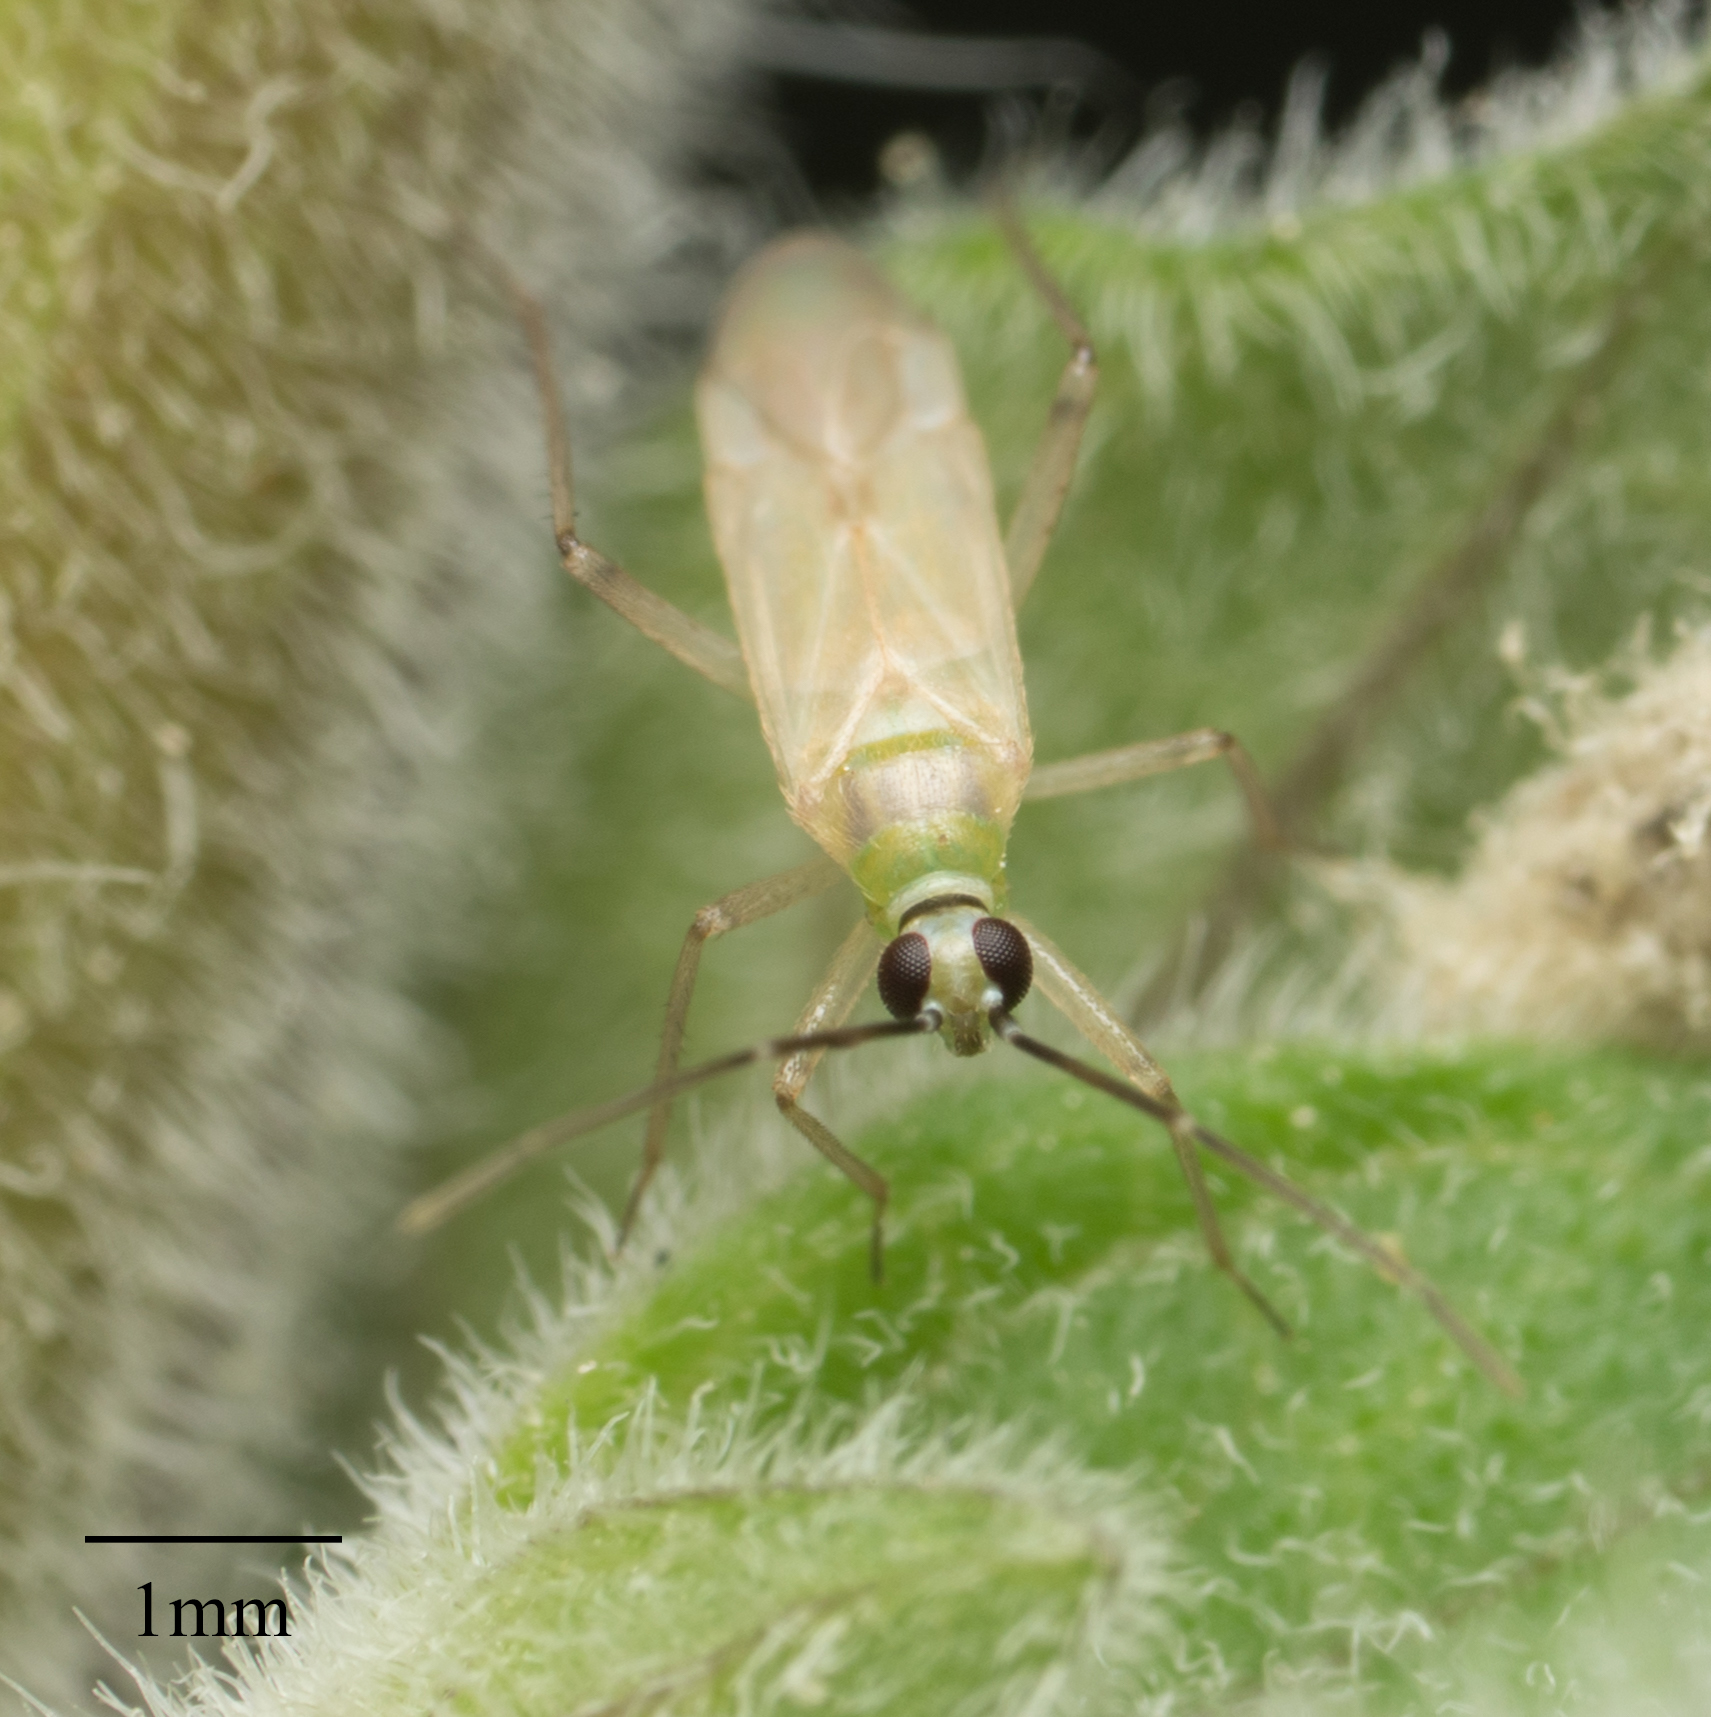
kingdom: Animalia
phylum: Arthropoda
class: Insecta
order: Hemiptera
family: Miridae
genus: Engytatus
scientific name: Engytatus modestus
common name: Tomato bug
